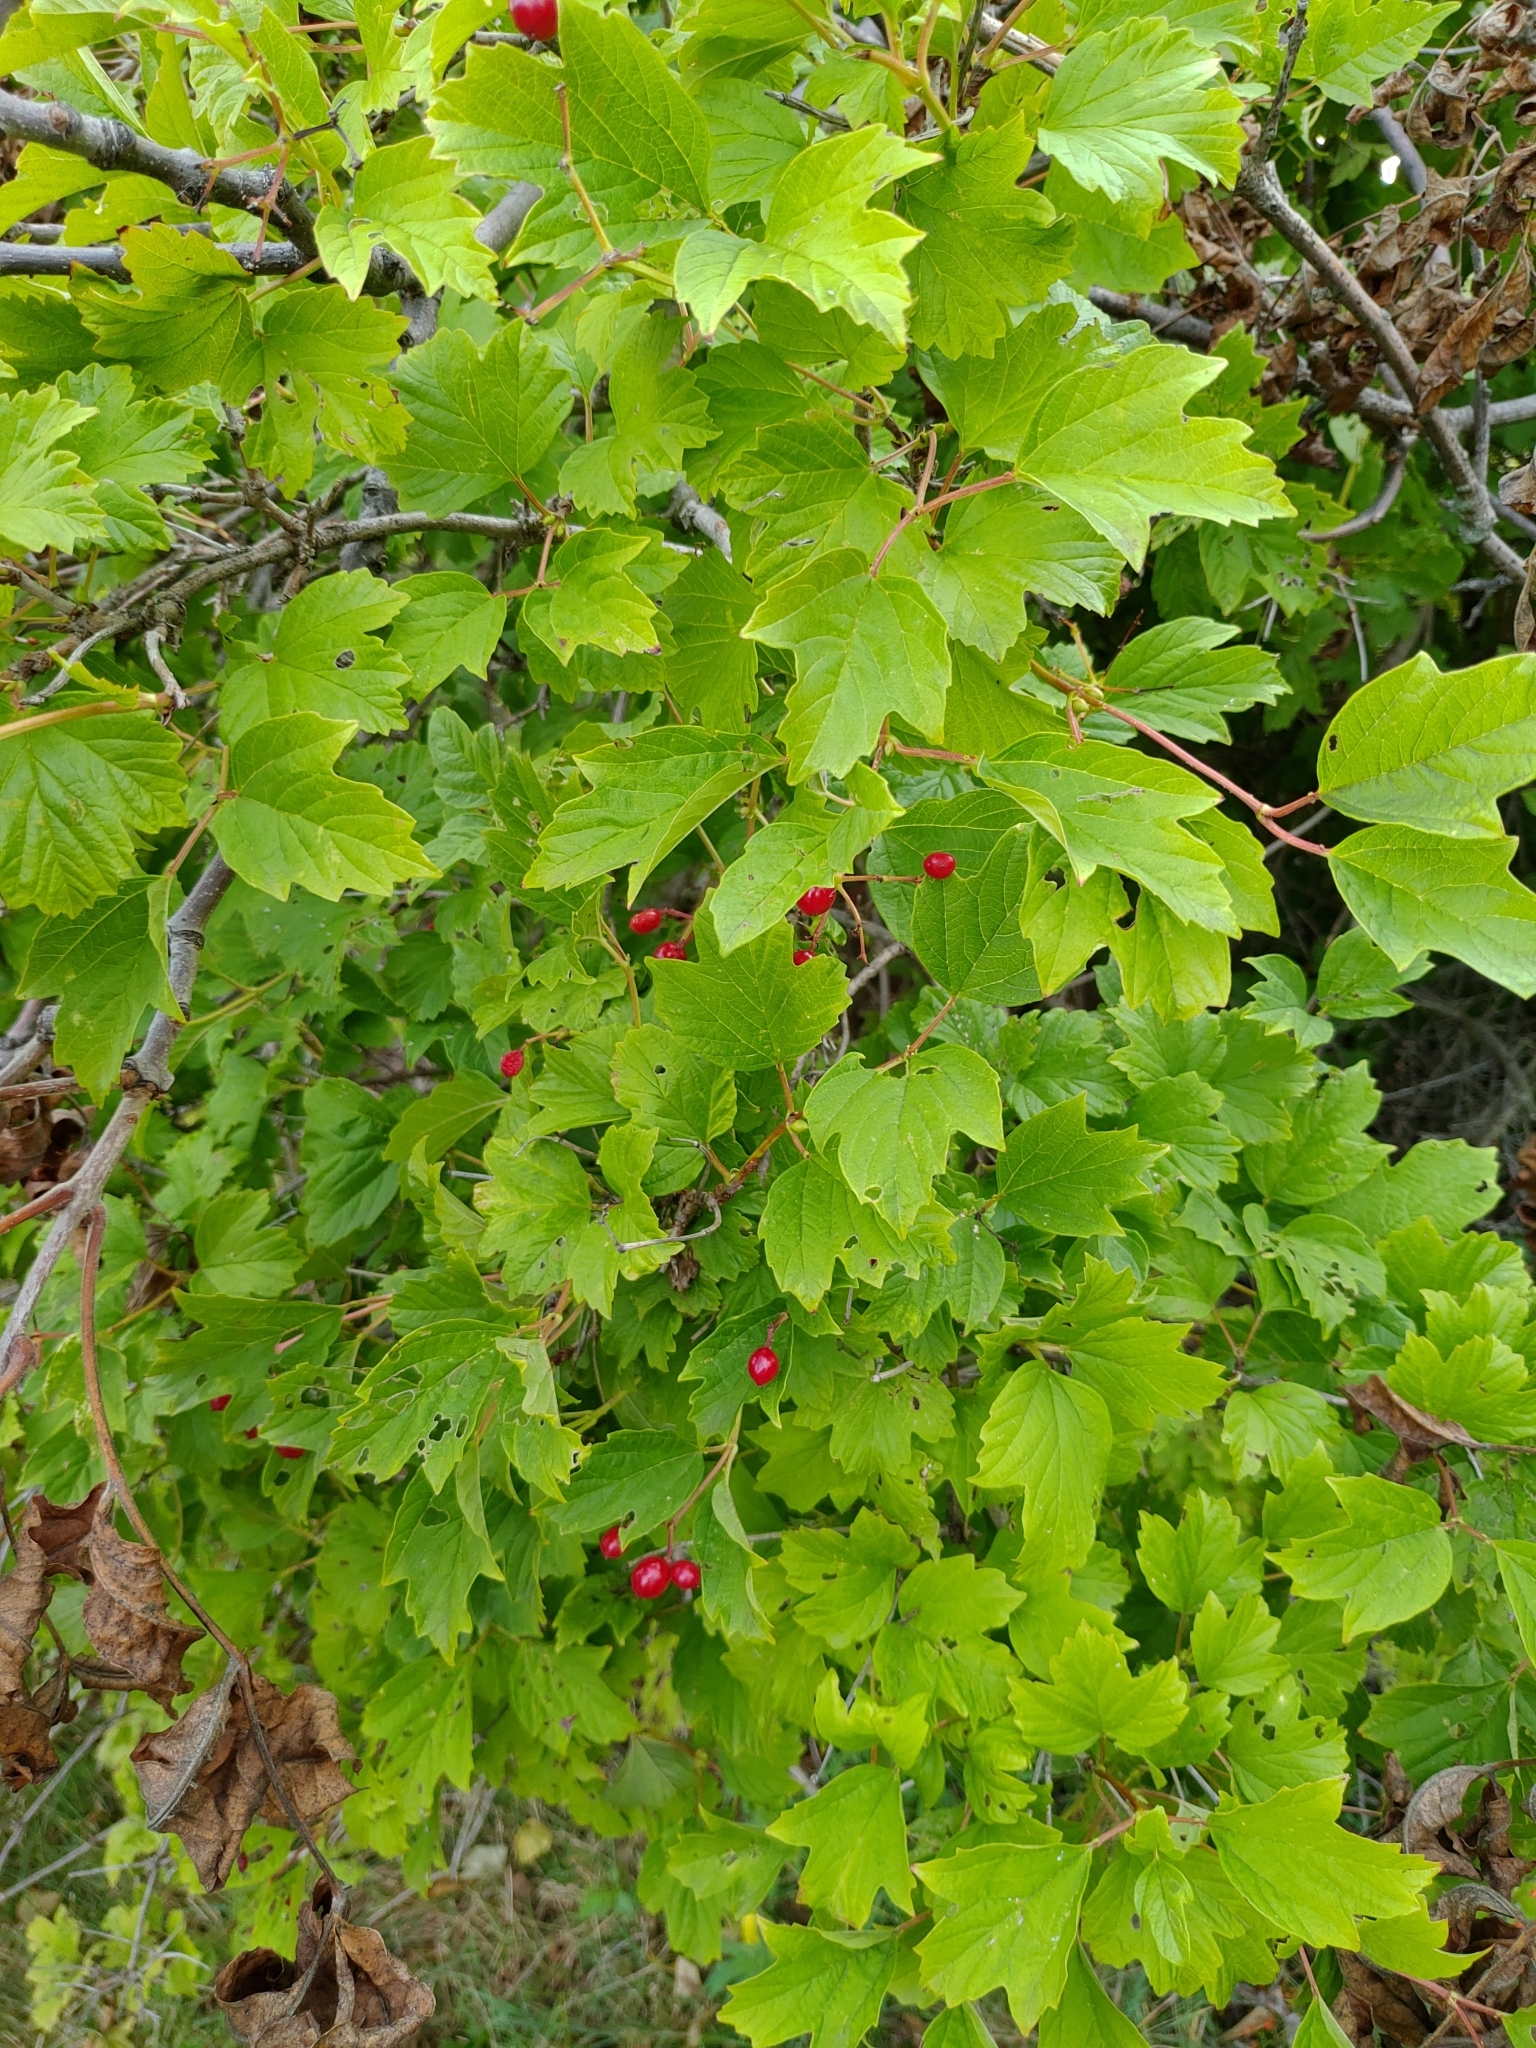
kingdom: Plantae
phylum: Tracheophyta
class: Magnoliopsida
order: Dipsacales
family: Viburnaceae
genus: Viburnum
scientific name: Viburnum opulus
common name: Guelder-rose
